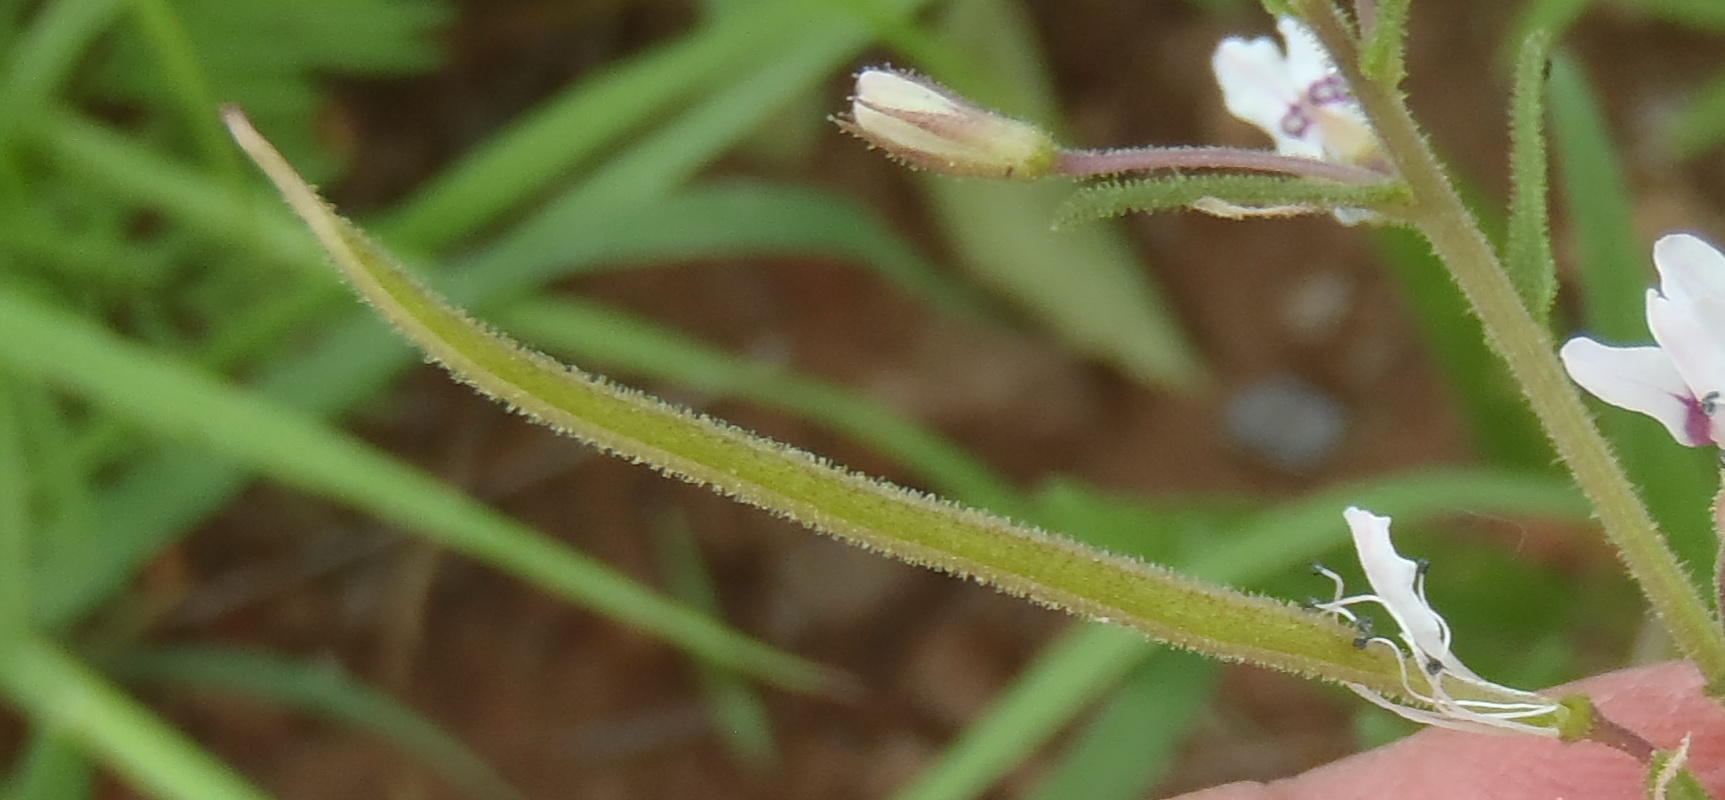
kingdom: Plantae
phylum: Tracheophyta
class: Magnoliopsida
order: Brassicales
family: Cleomaceae
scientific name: Cleomaceae
